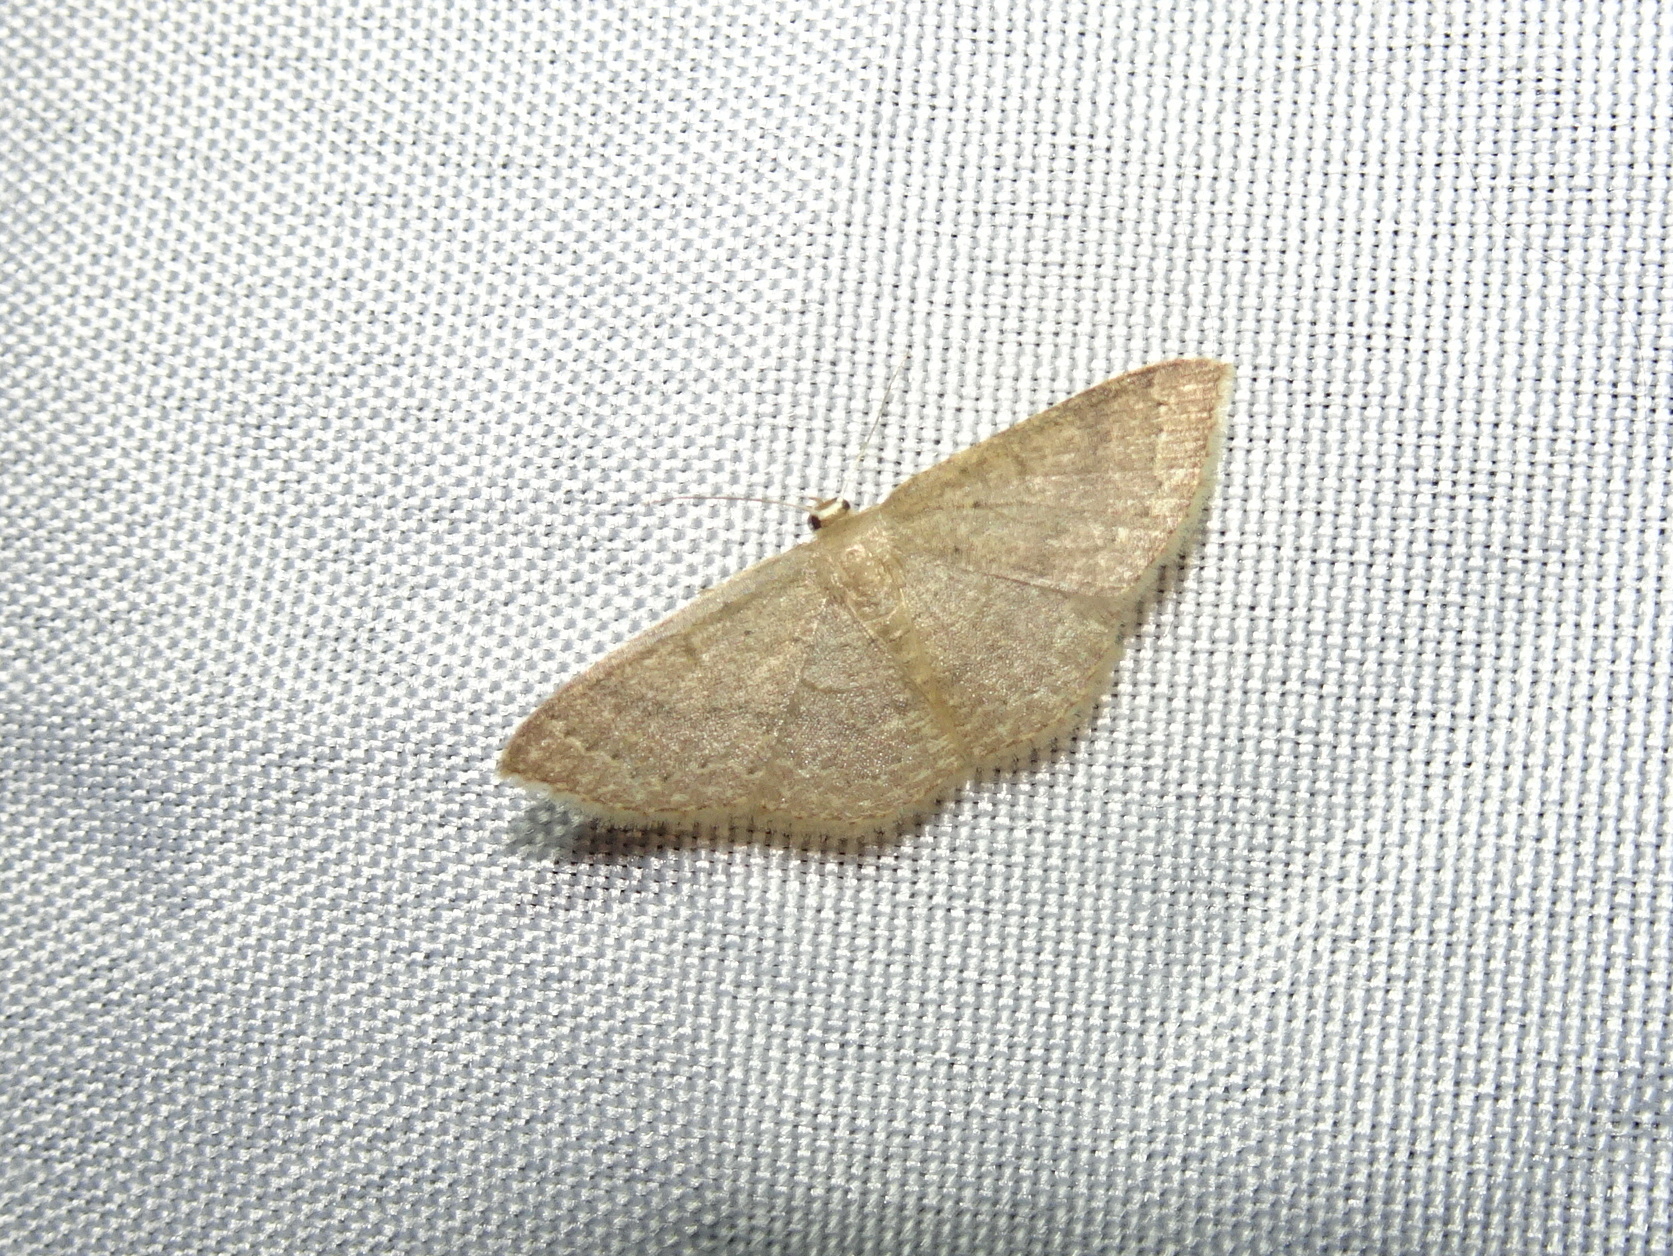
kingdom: Animalia
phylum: Arthropoda
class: Insecta
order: Lepidoptera
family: Geometridae
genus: Pleuroprucha
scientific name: Pleuroprucha insulsaria
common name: Common tan wave
